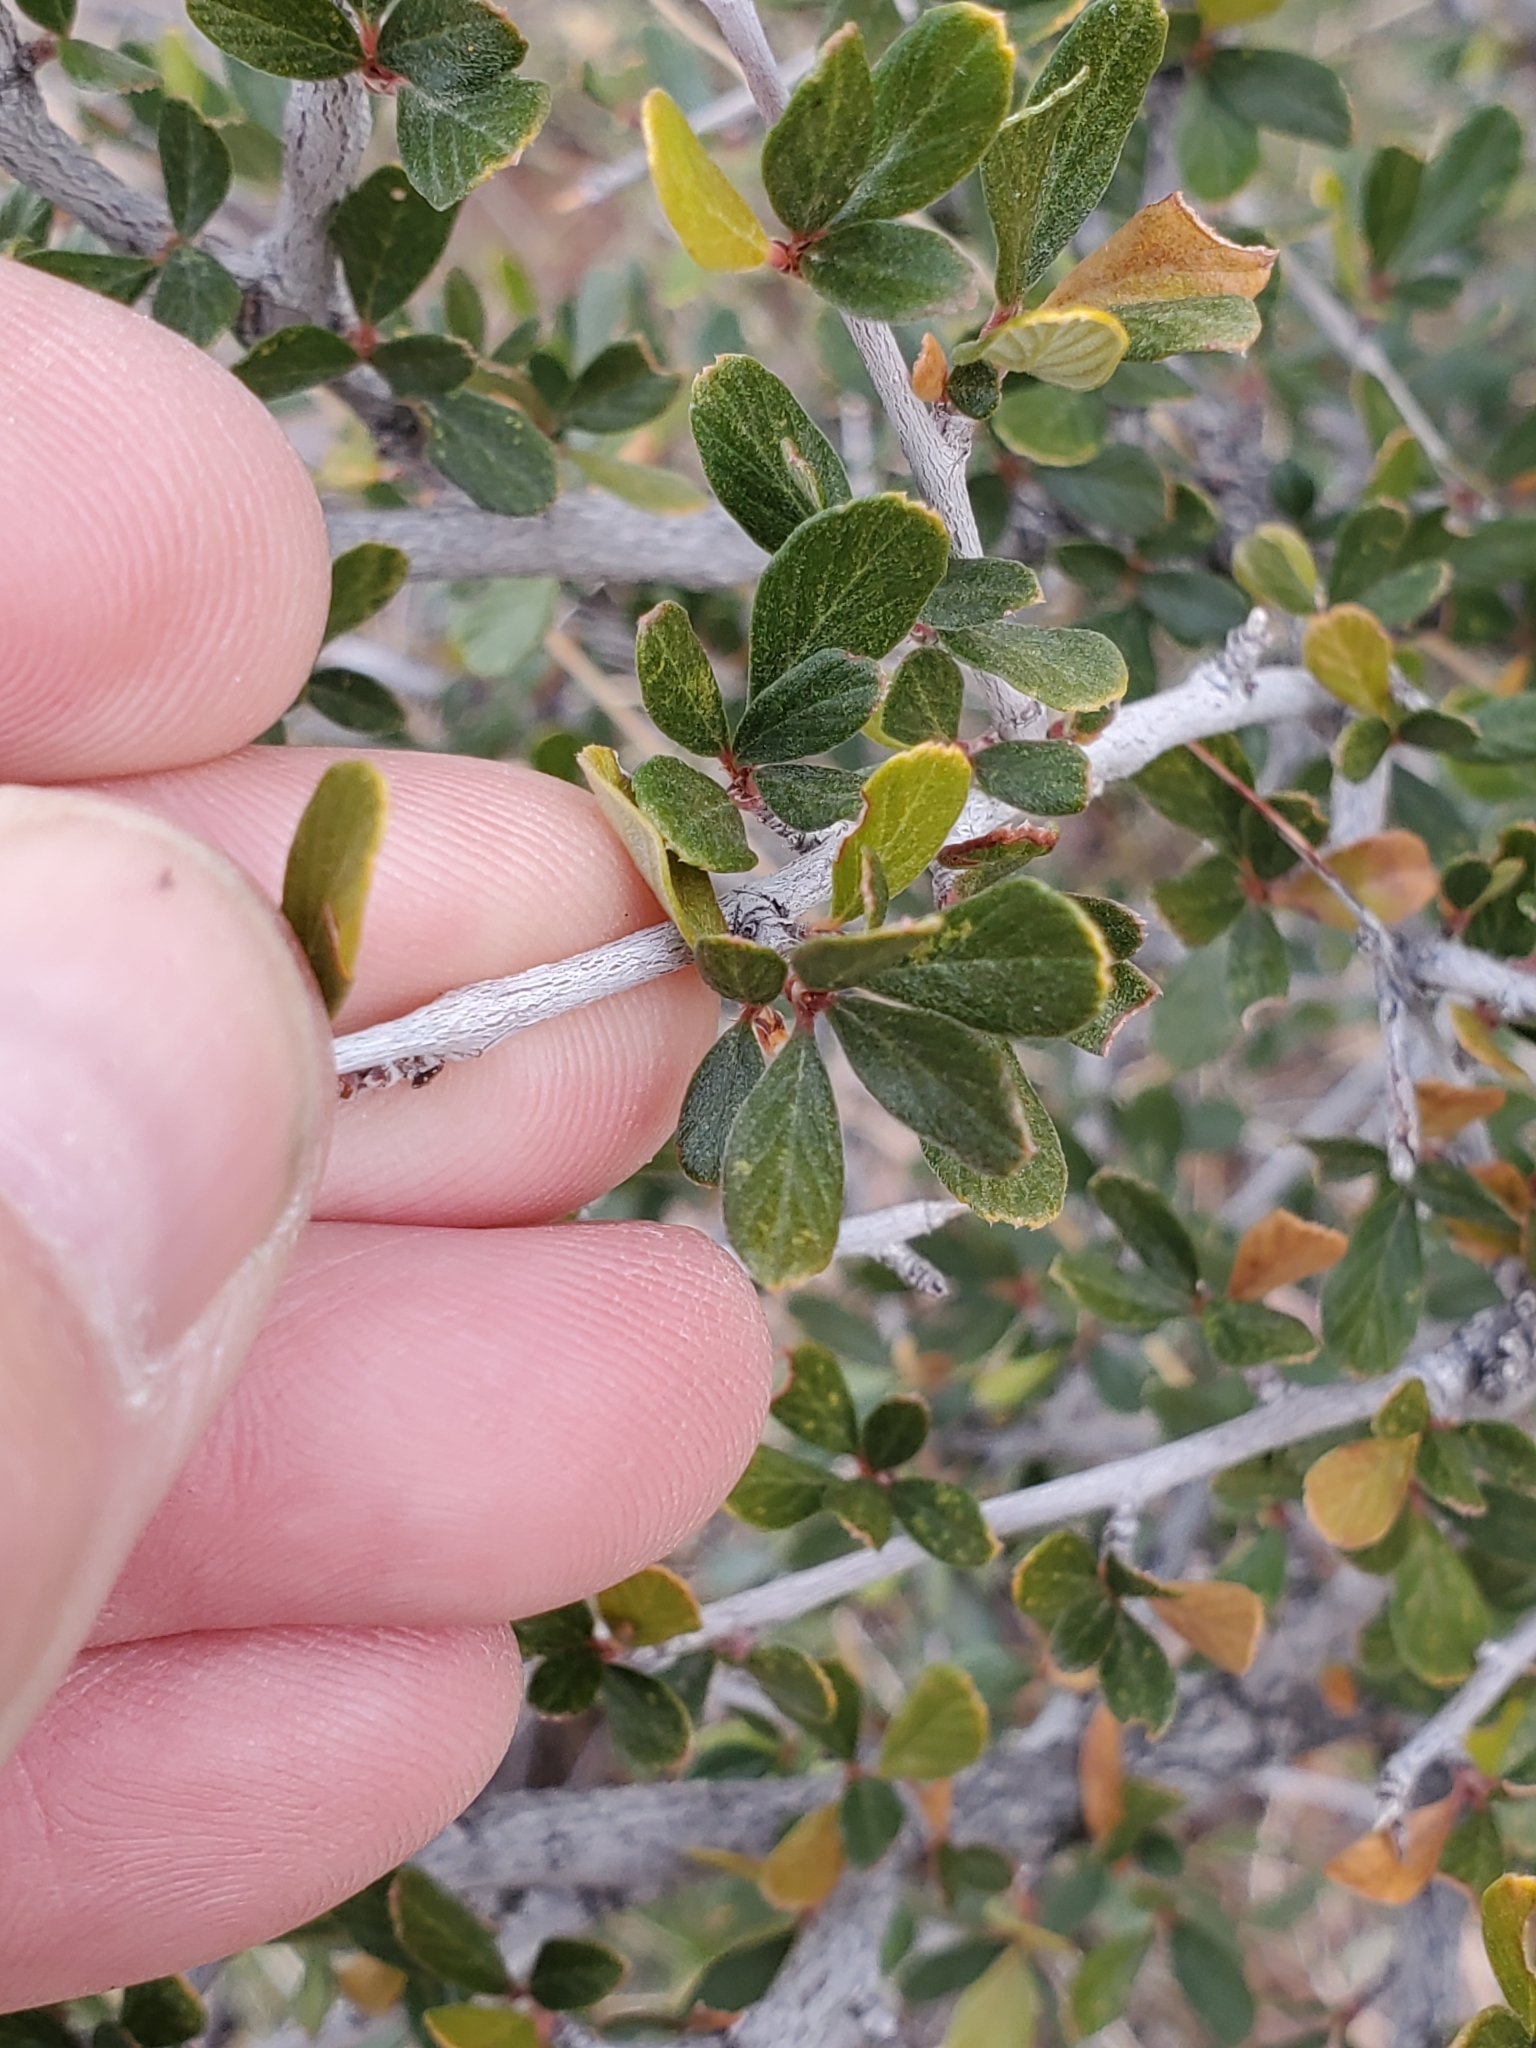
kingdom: Plantae
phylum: Tracheophyta
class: Magnoliopsida
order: Rosales
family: Rosaceae
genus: Cercocarpus
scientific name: Cercocarpus breviflorus
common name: Wright's mountain-mahogany
